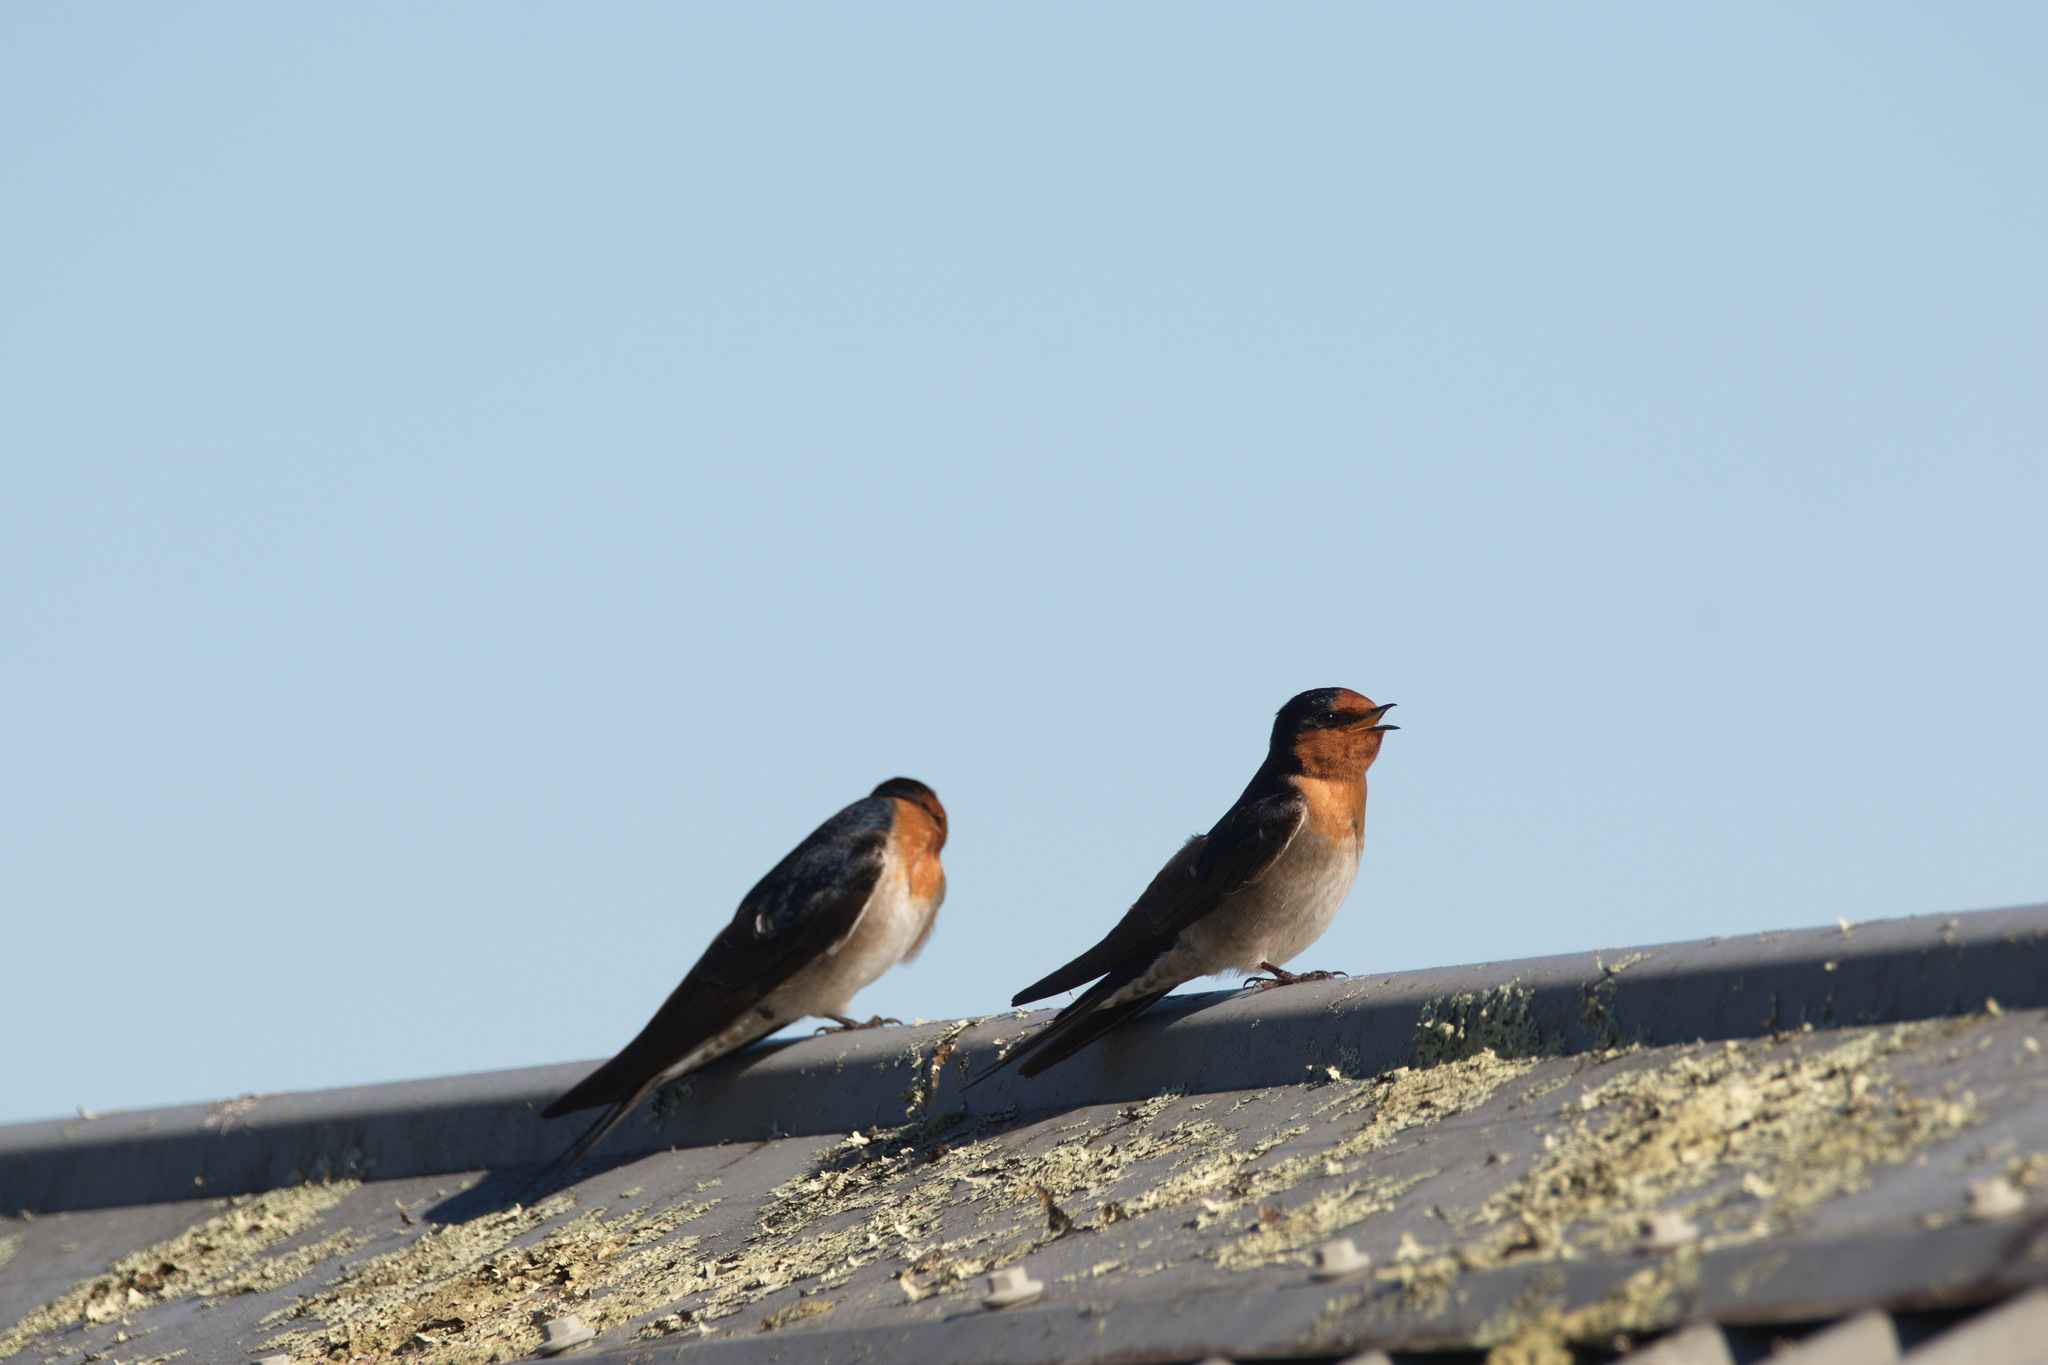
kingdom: Animalia
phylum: Chordata
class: Aves
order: Passeriformes
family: Hirundinidae
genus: Hirundo
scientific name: Hirundo neoxena
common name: Welcome swallow
